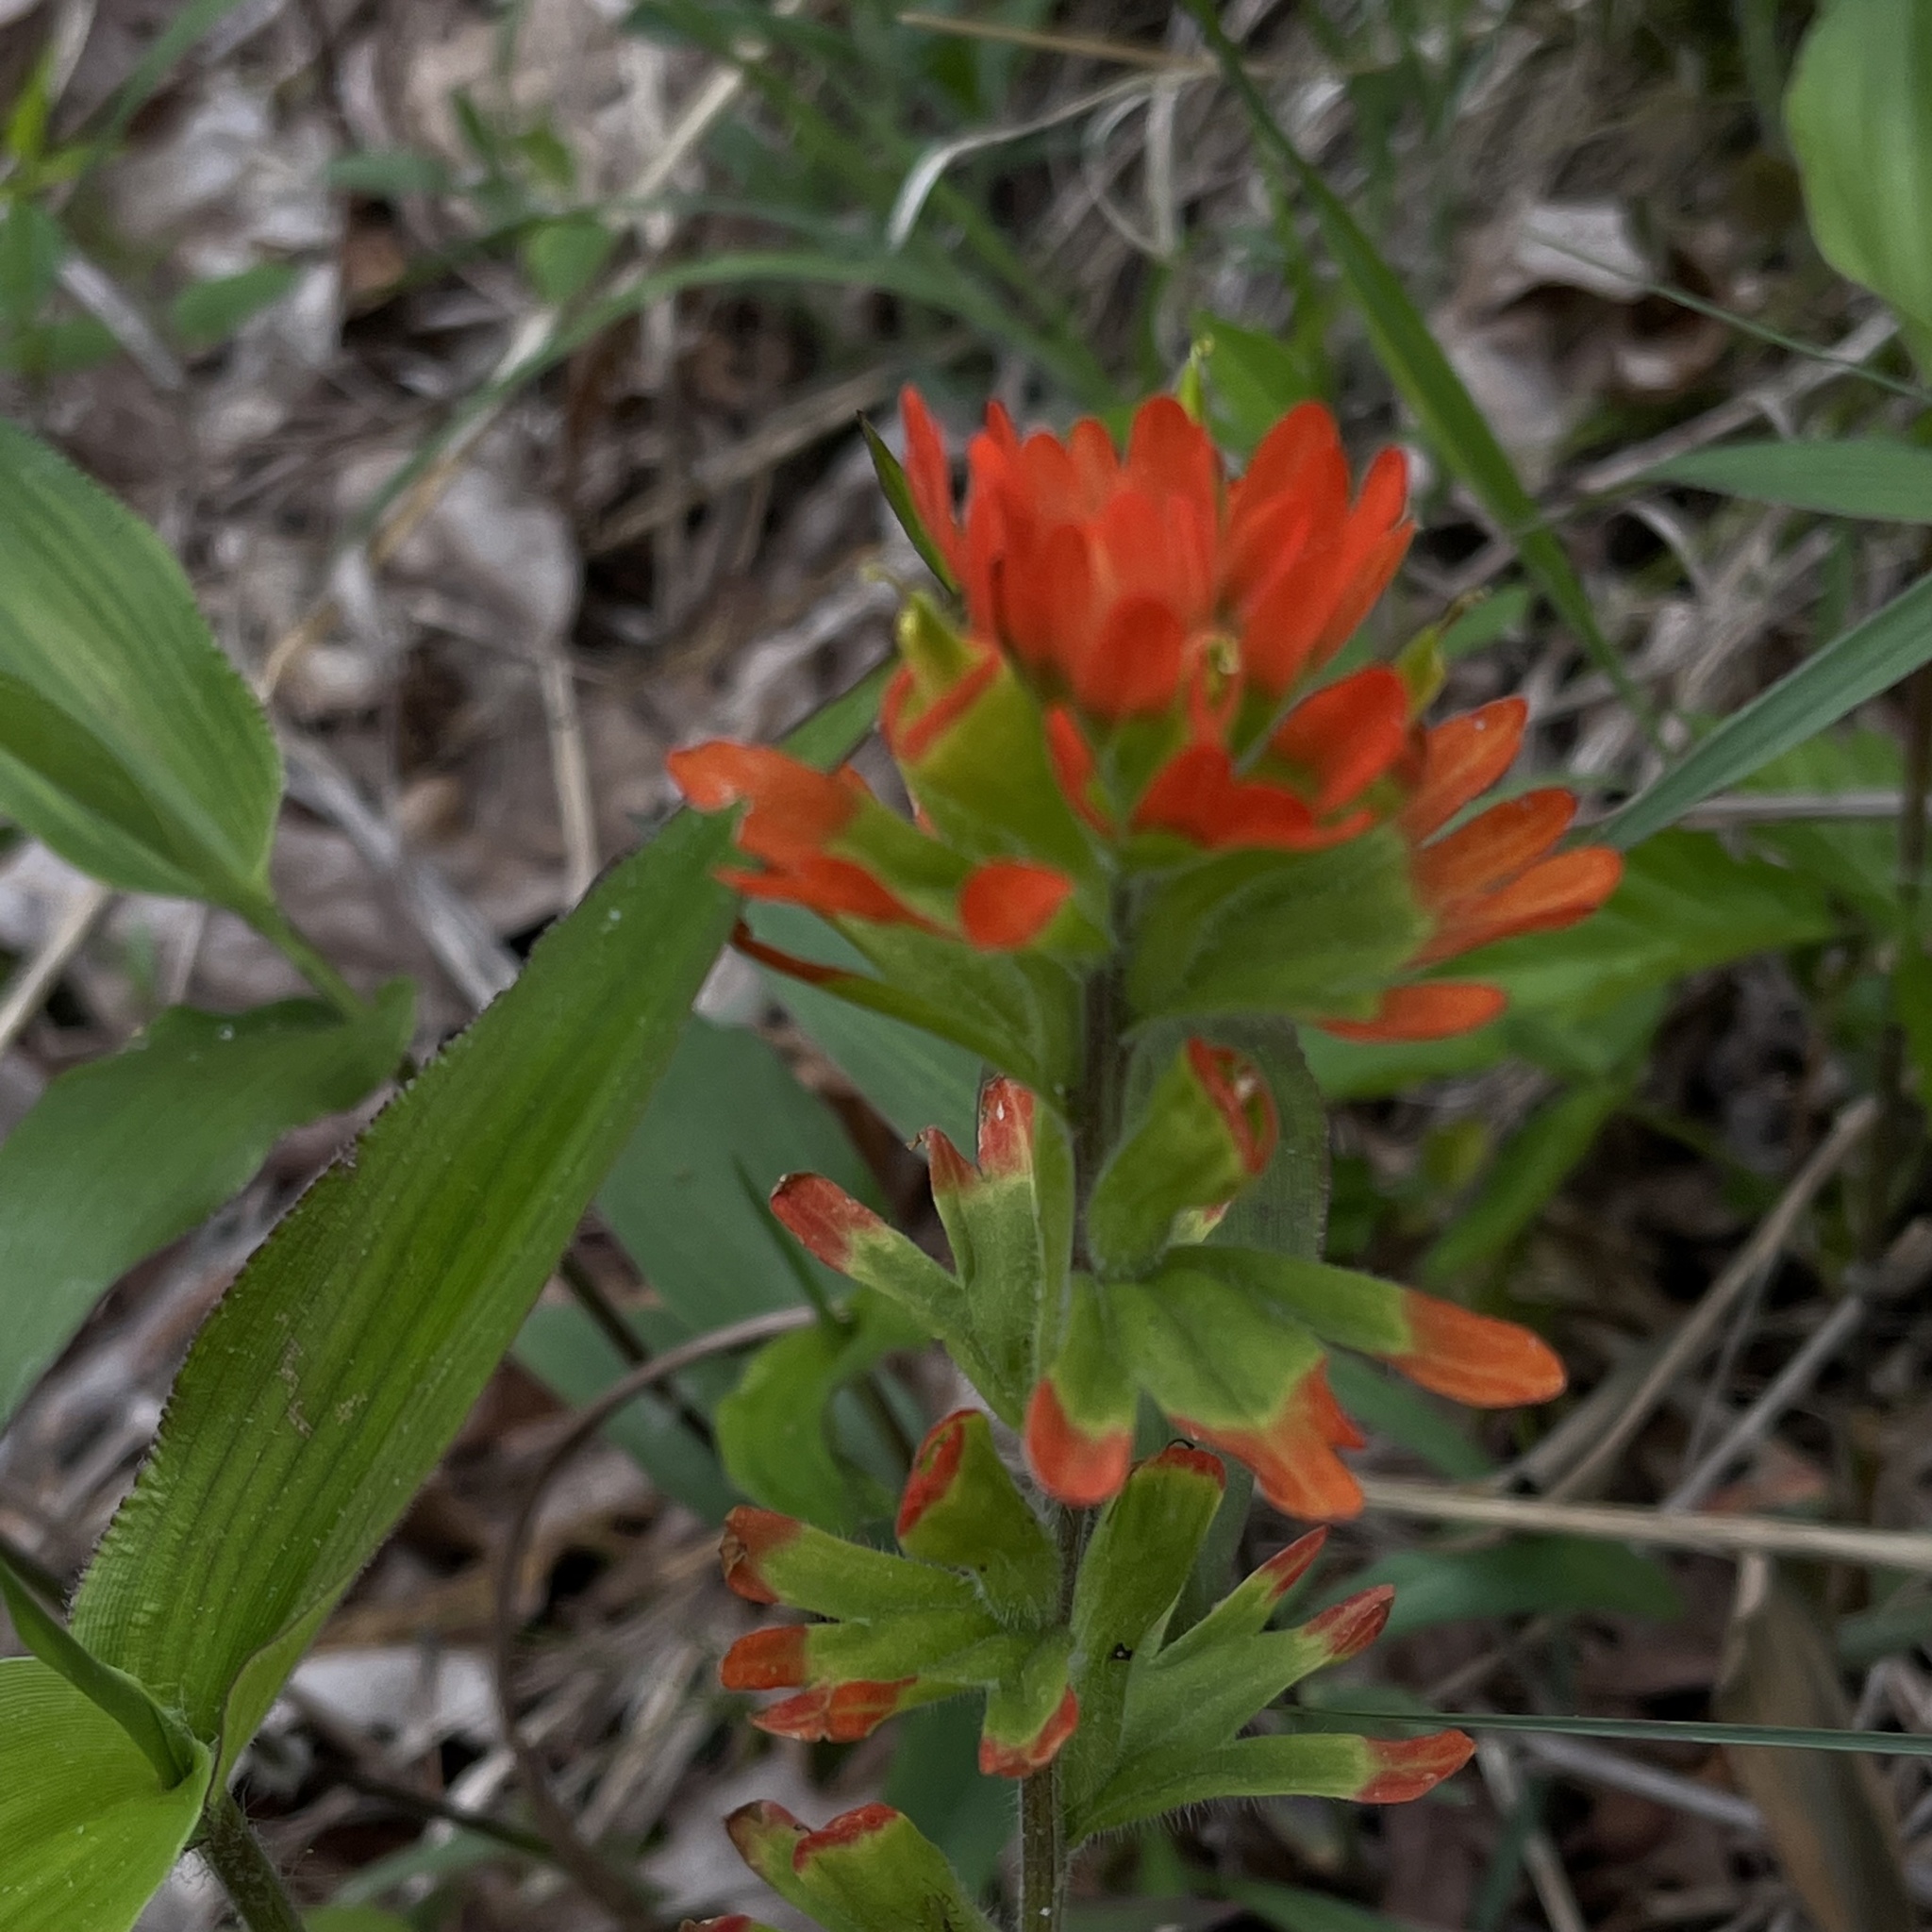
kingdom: Plantae
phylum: Tracheophyta
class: Magnoliopsida
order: Lamiales
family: Orobanchaceae
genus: Castilleja
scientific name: Castilleja coccinea
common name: Scarlet paintbrush
